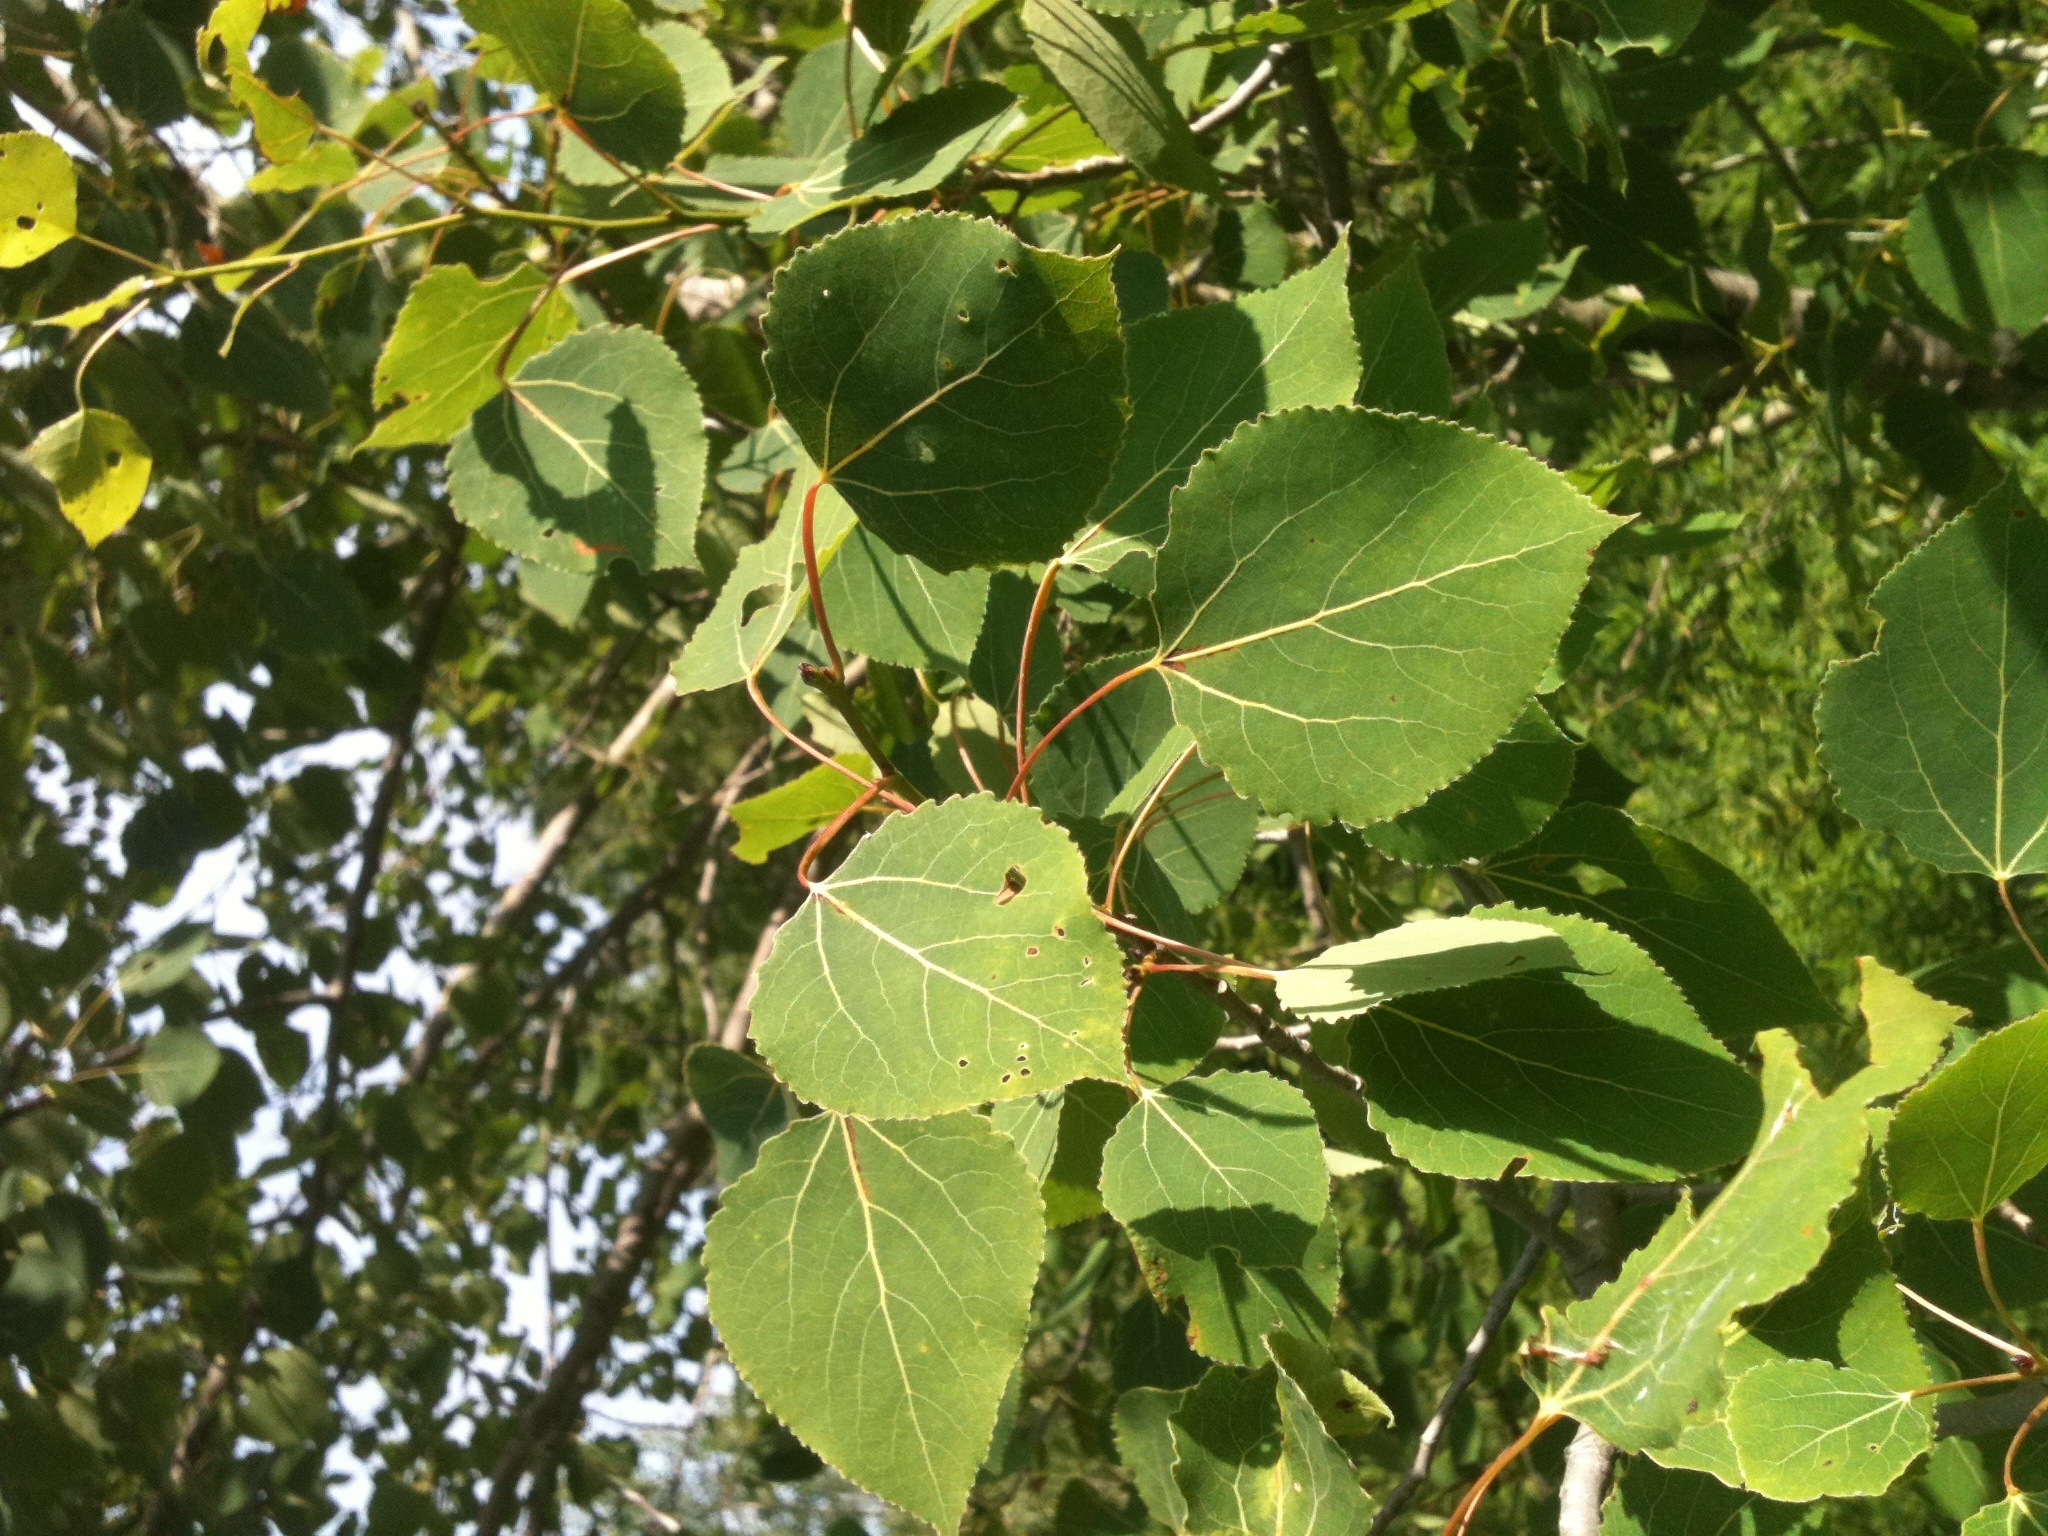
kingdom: Plantae
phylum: Tracheophyta
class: Magnoliopsida
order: Malpighiales
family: Salicaceae
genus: Populus
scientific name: Populus tremuloides
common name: Quaking aspen
